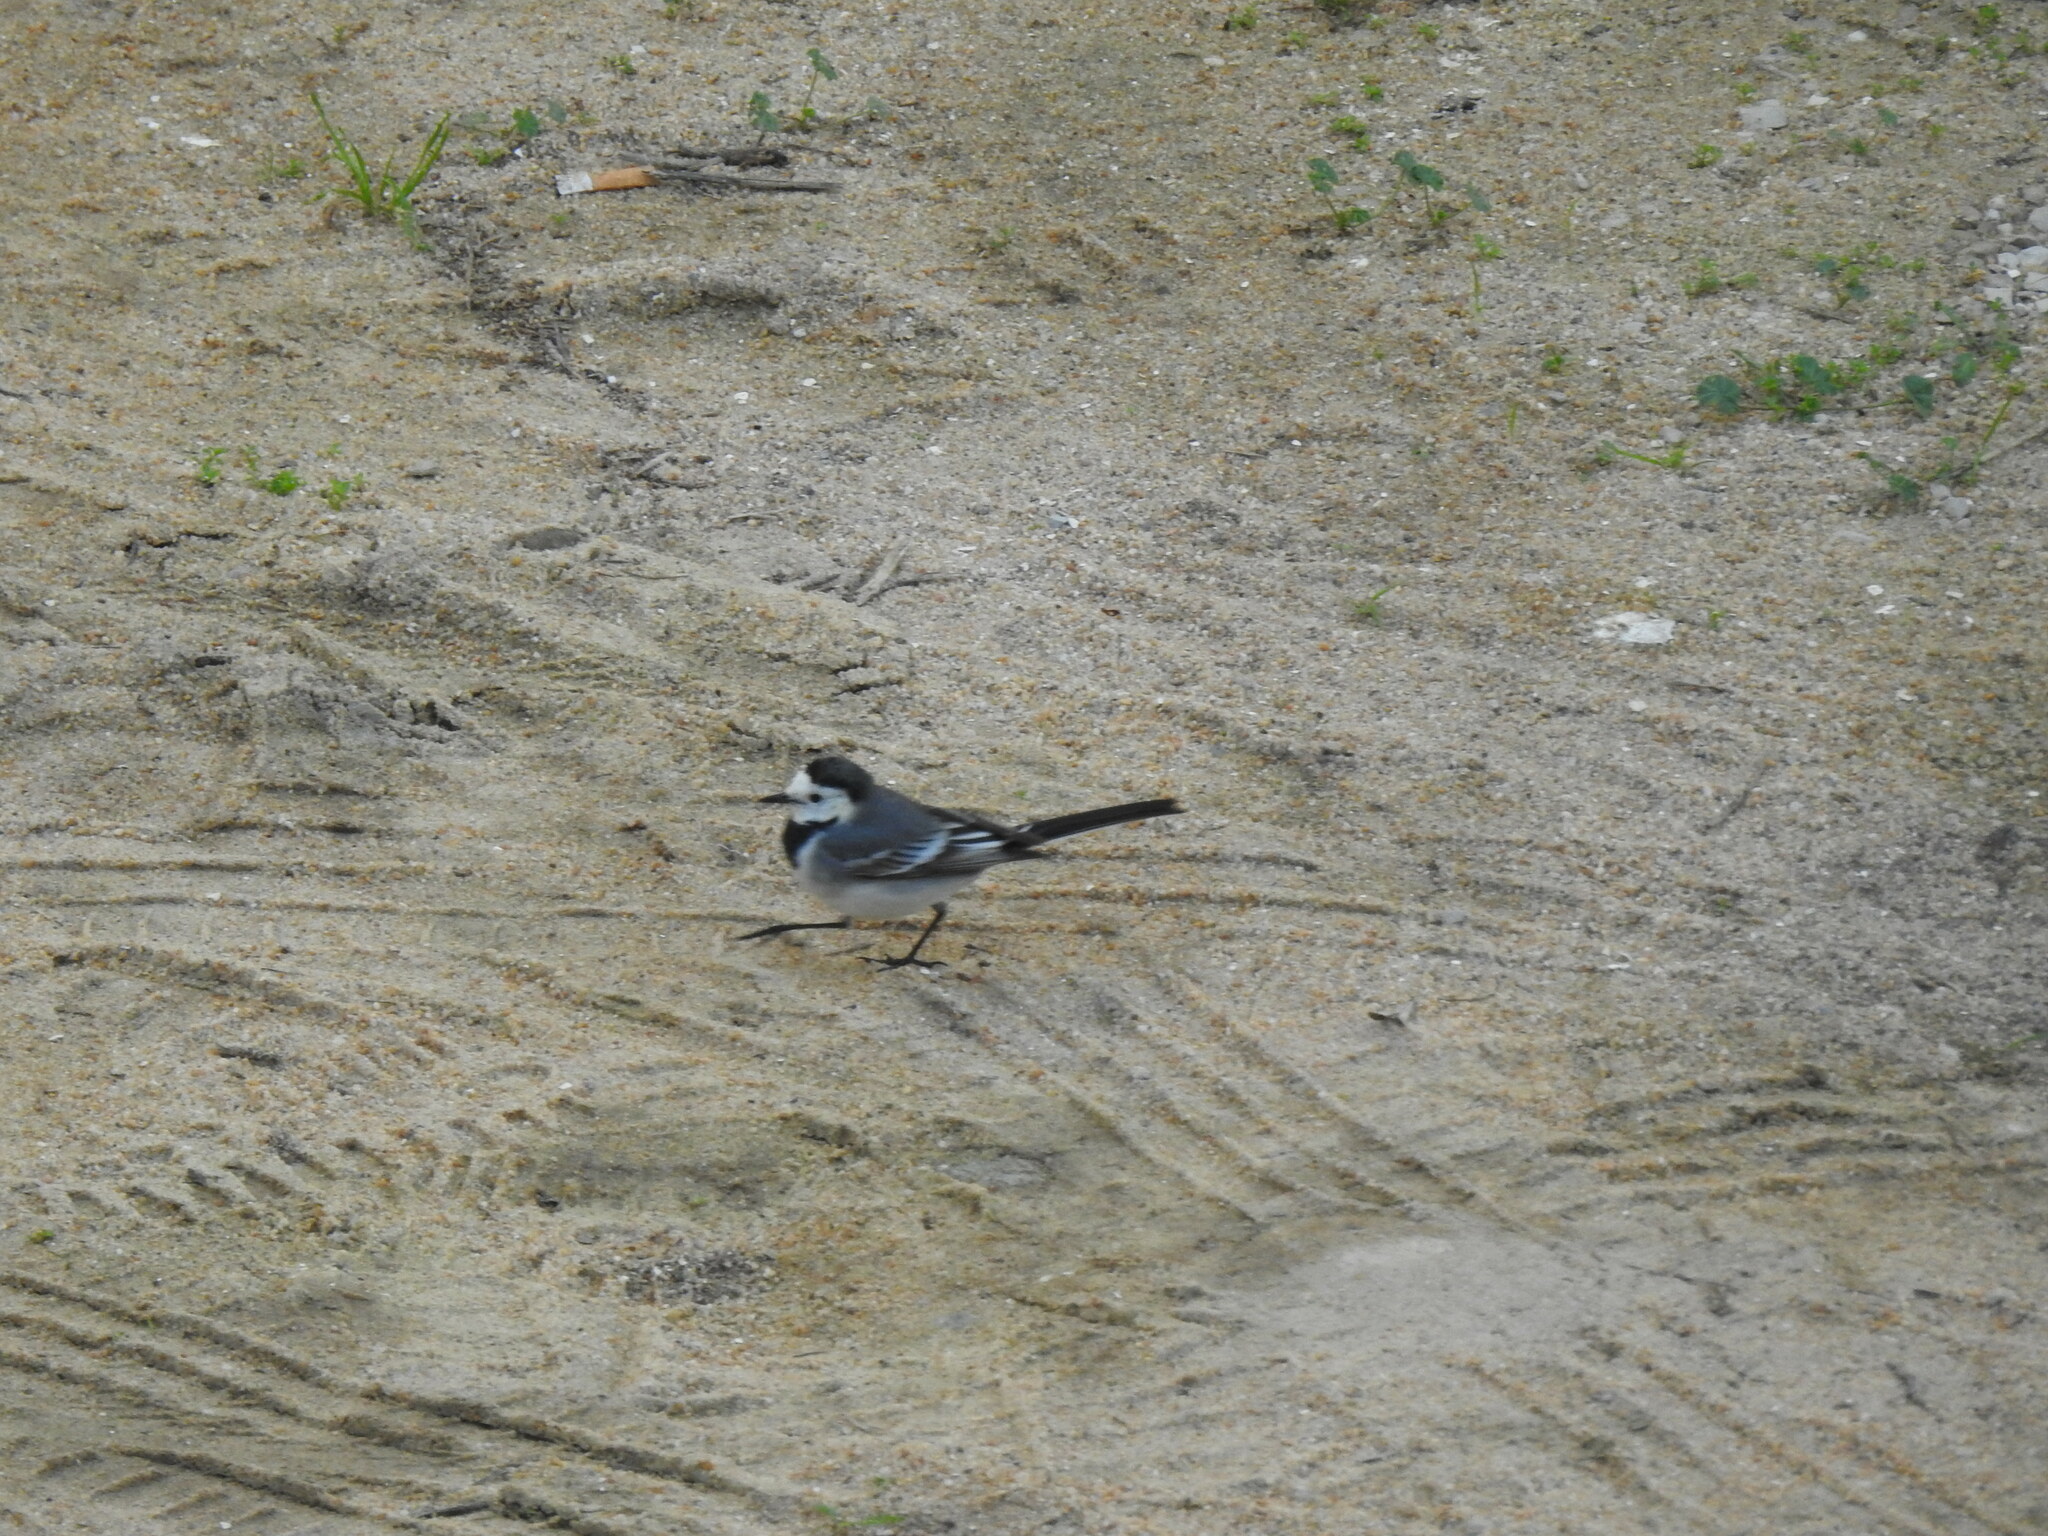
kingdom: Animalia
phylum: Chordata
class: Aves
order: Passeriformes
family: Motacillidae
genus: Motacilla
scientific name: Motacilla alba
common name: White wagtail
